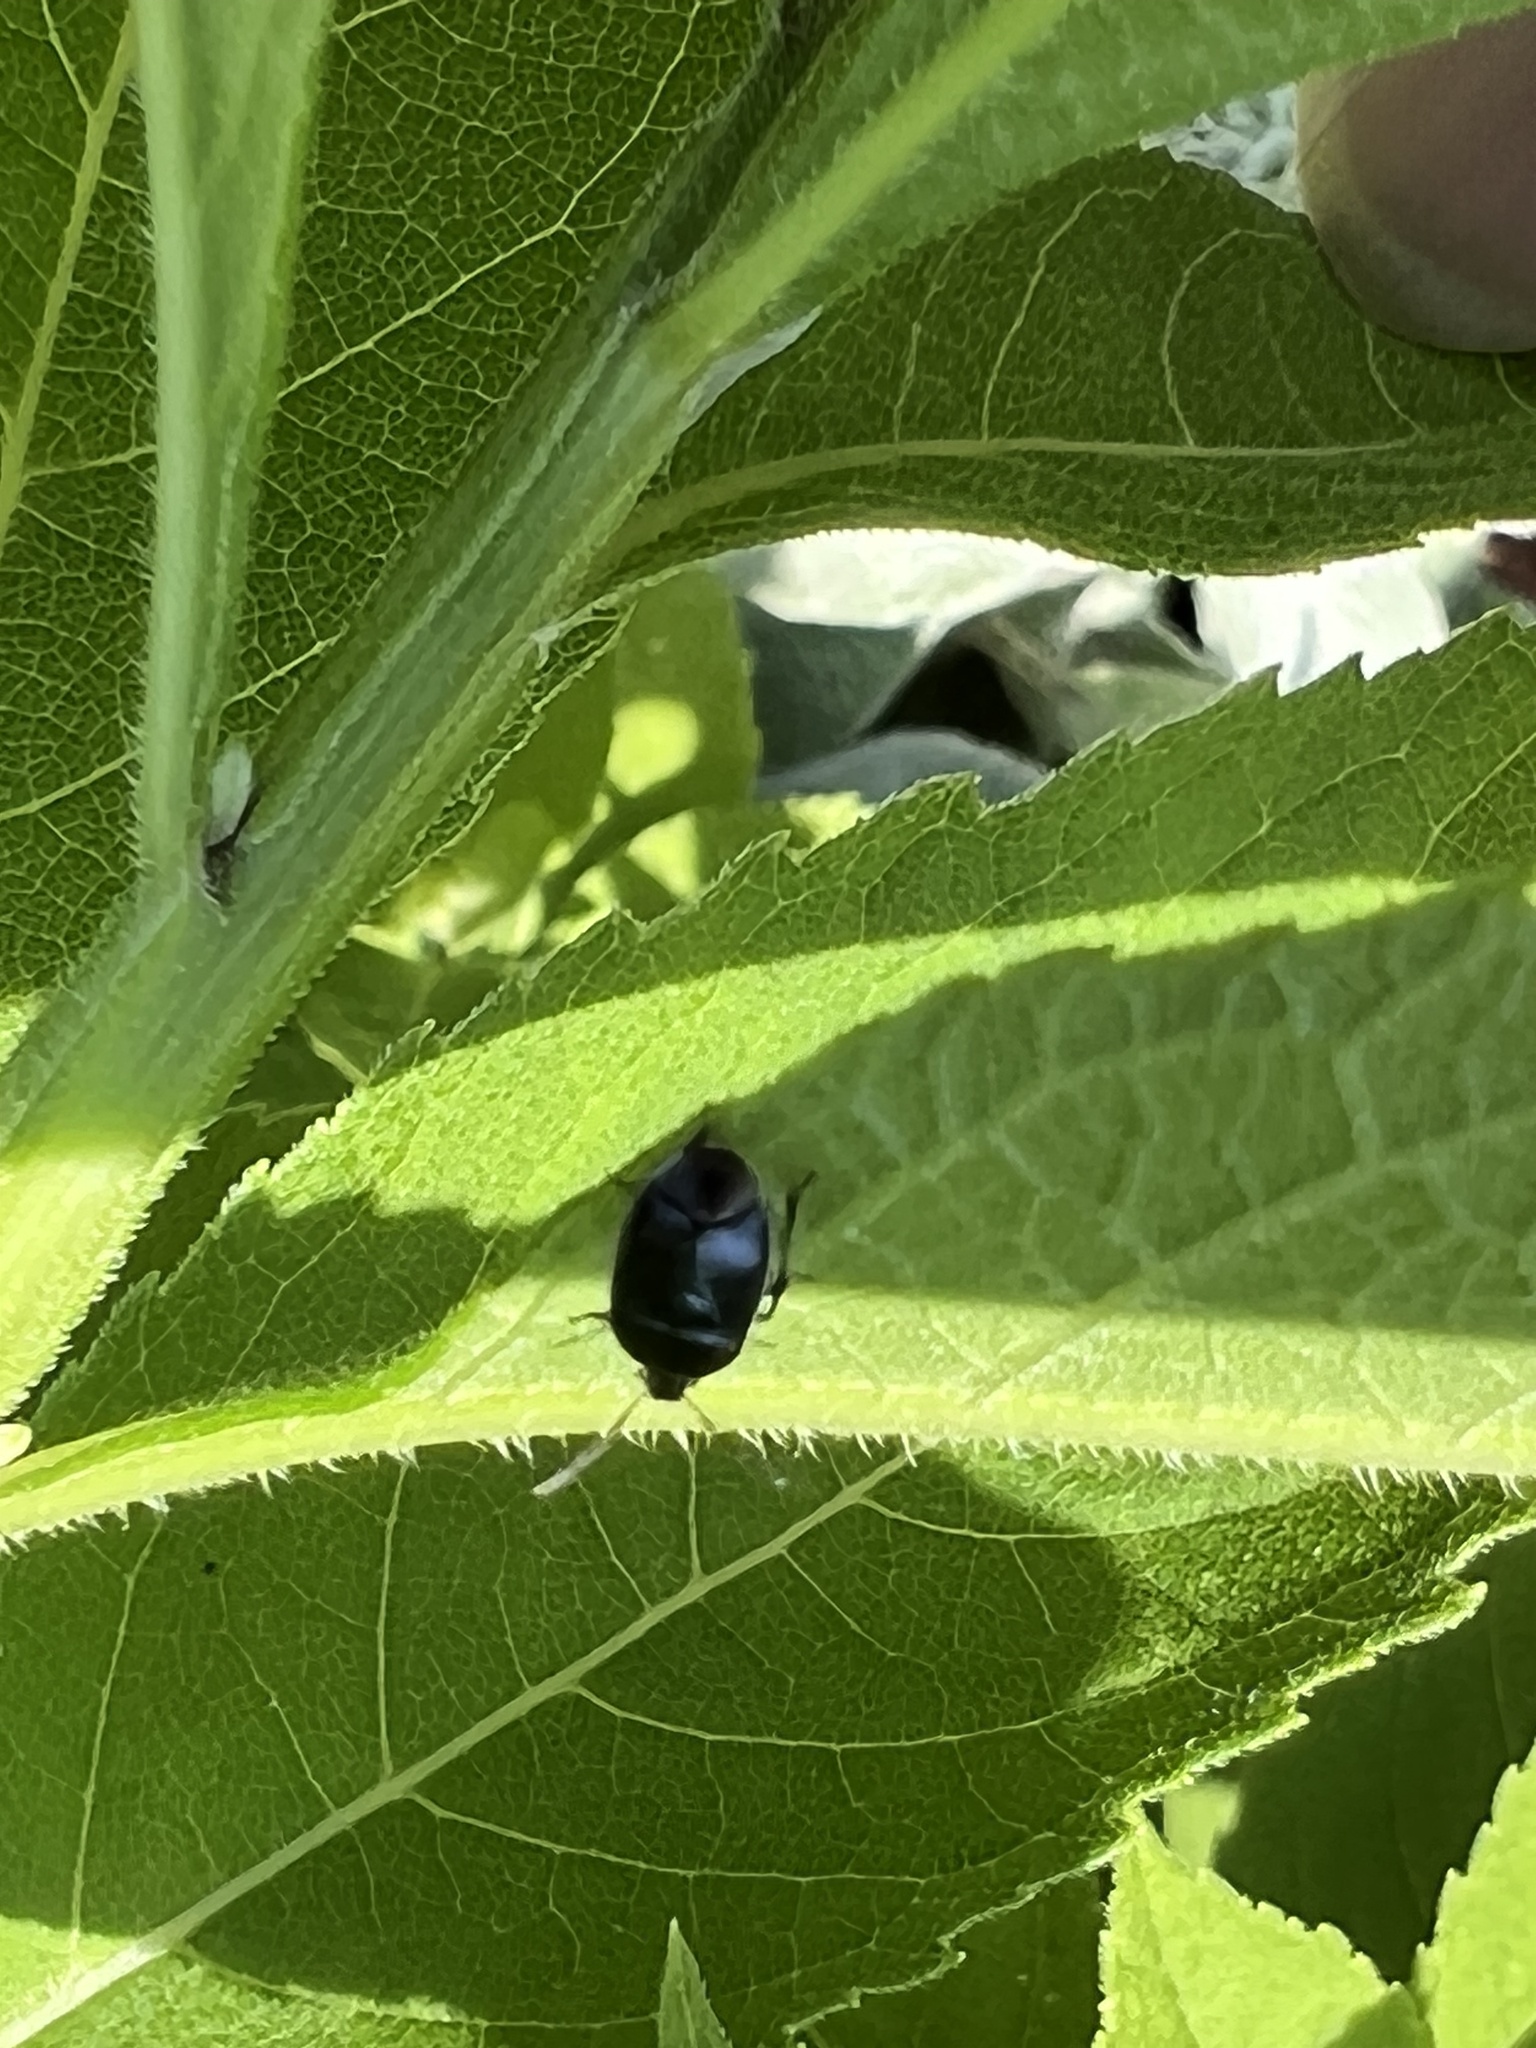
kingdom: Animalia
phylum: Arthropoda
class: Insecta
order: Hemiptera
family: Cydnidae
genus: Sehirus
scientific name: Sehirus cinctus
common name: White-margined burrower bug
